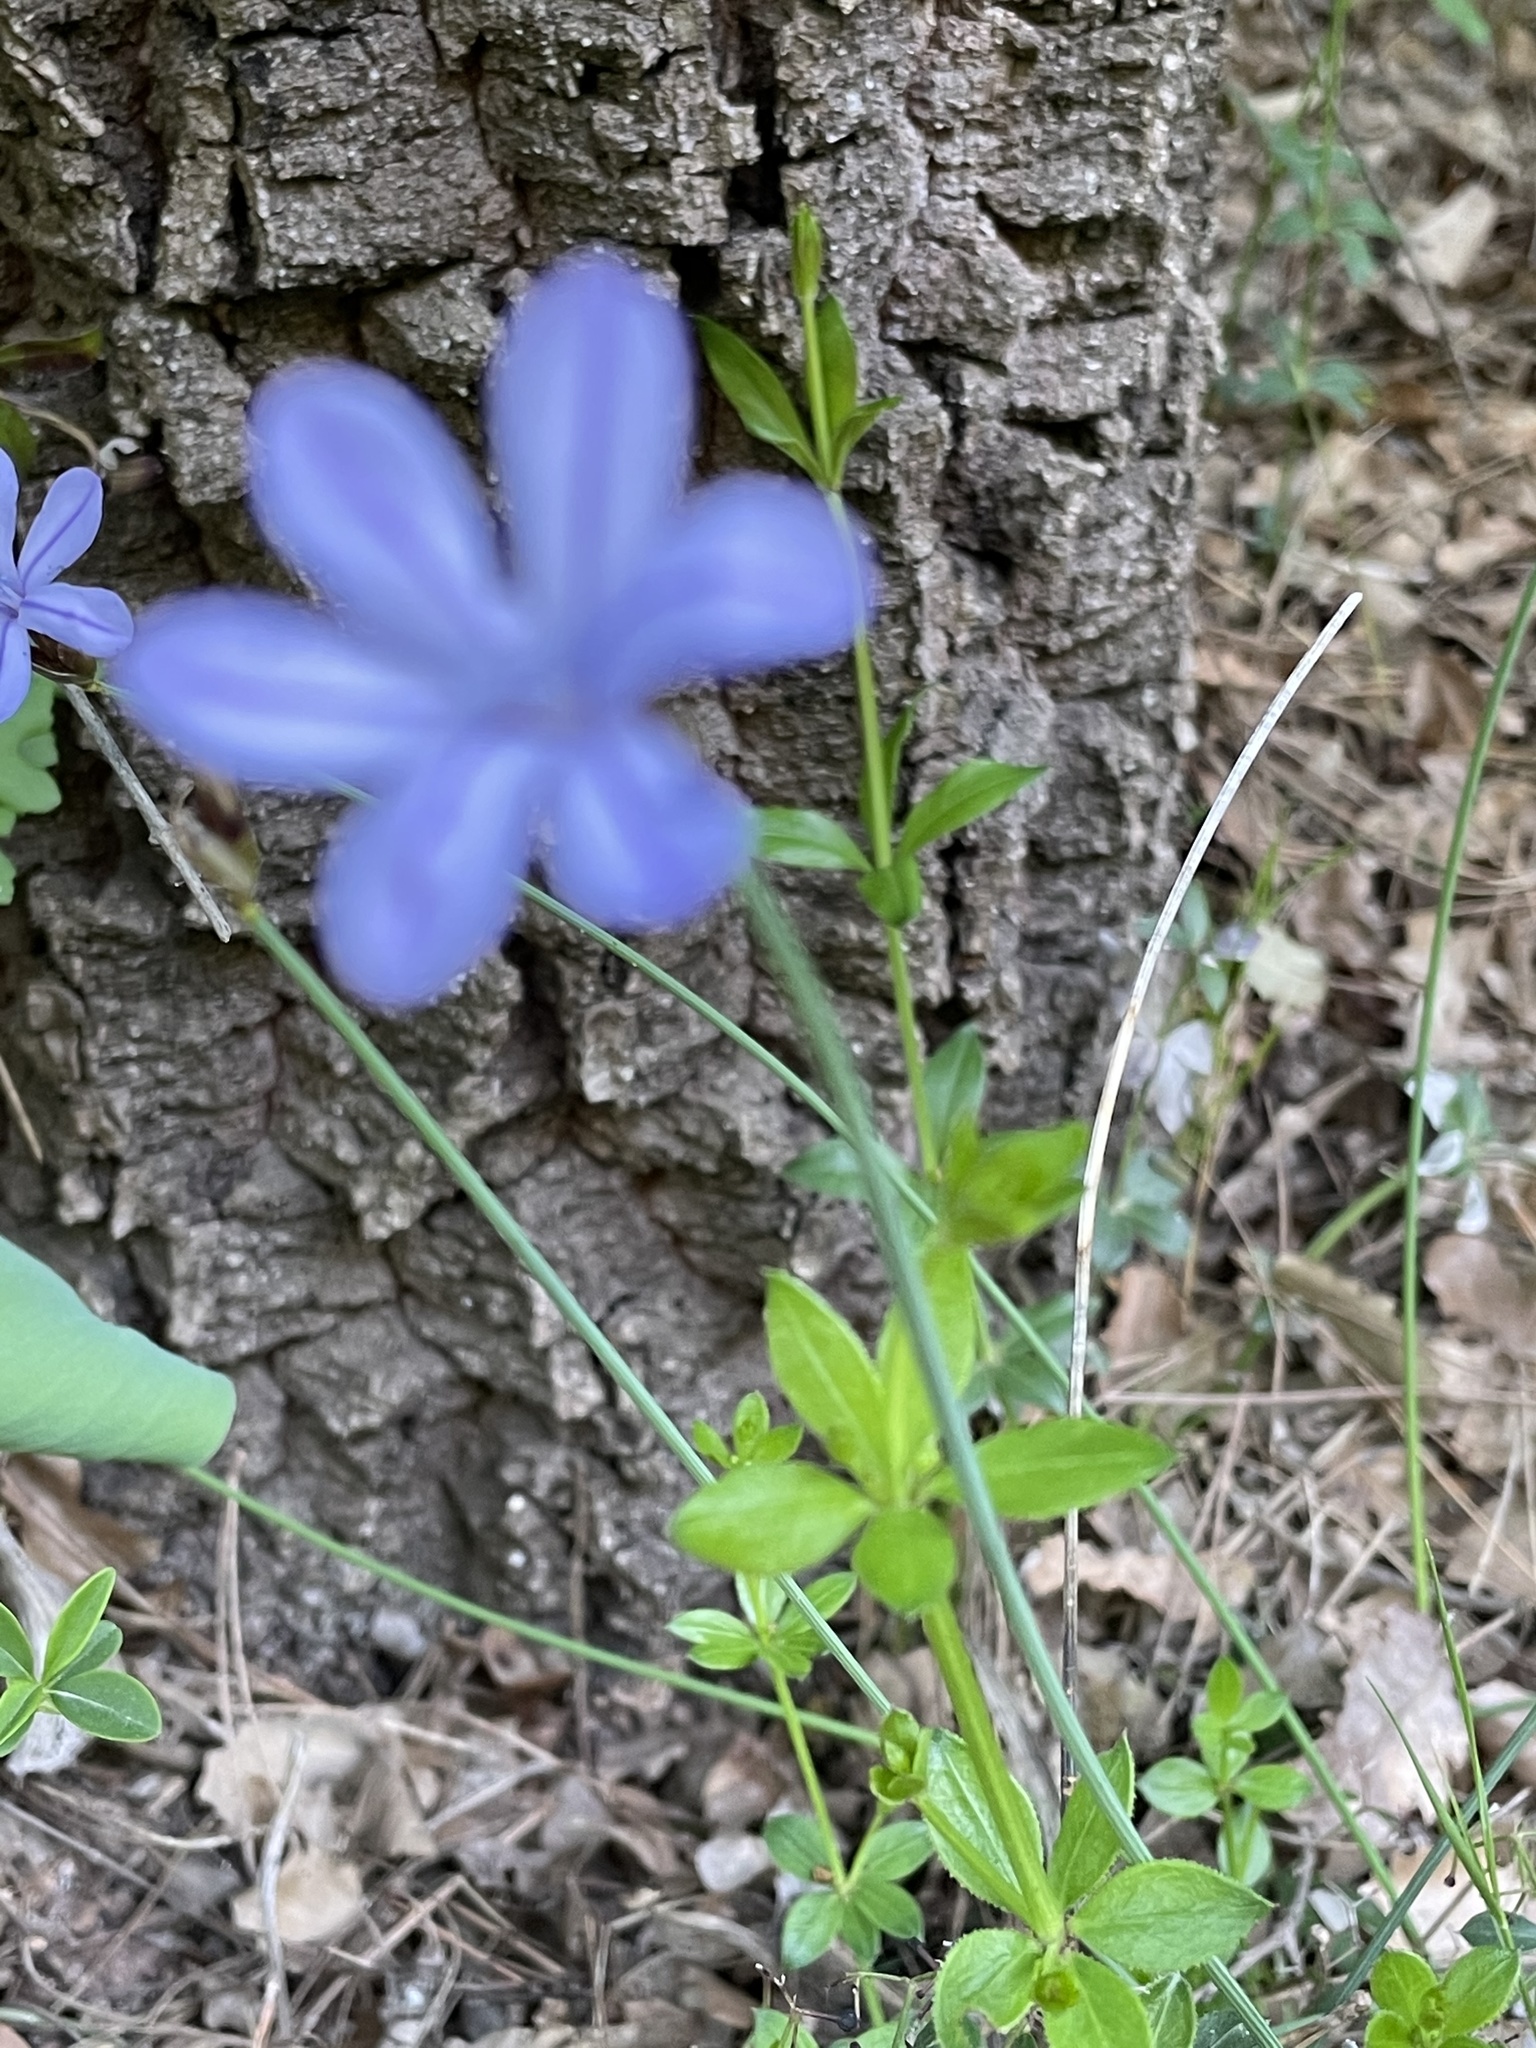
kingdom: Plantae
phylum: Tracheophyta
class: Liliopsida
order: Asparagales
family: Asparagaceae
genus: Aphyllanthes
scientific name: Aphyllanthes monspeliensis
